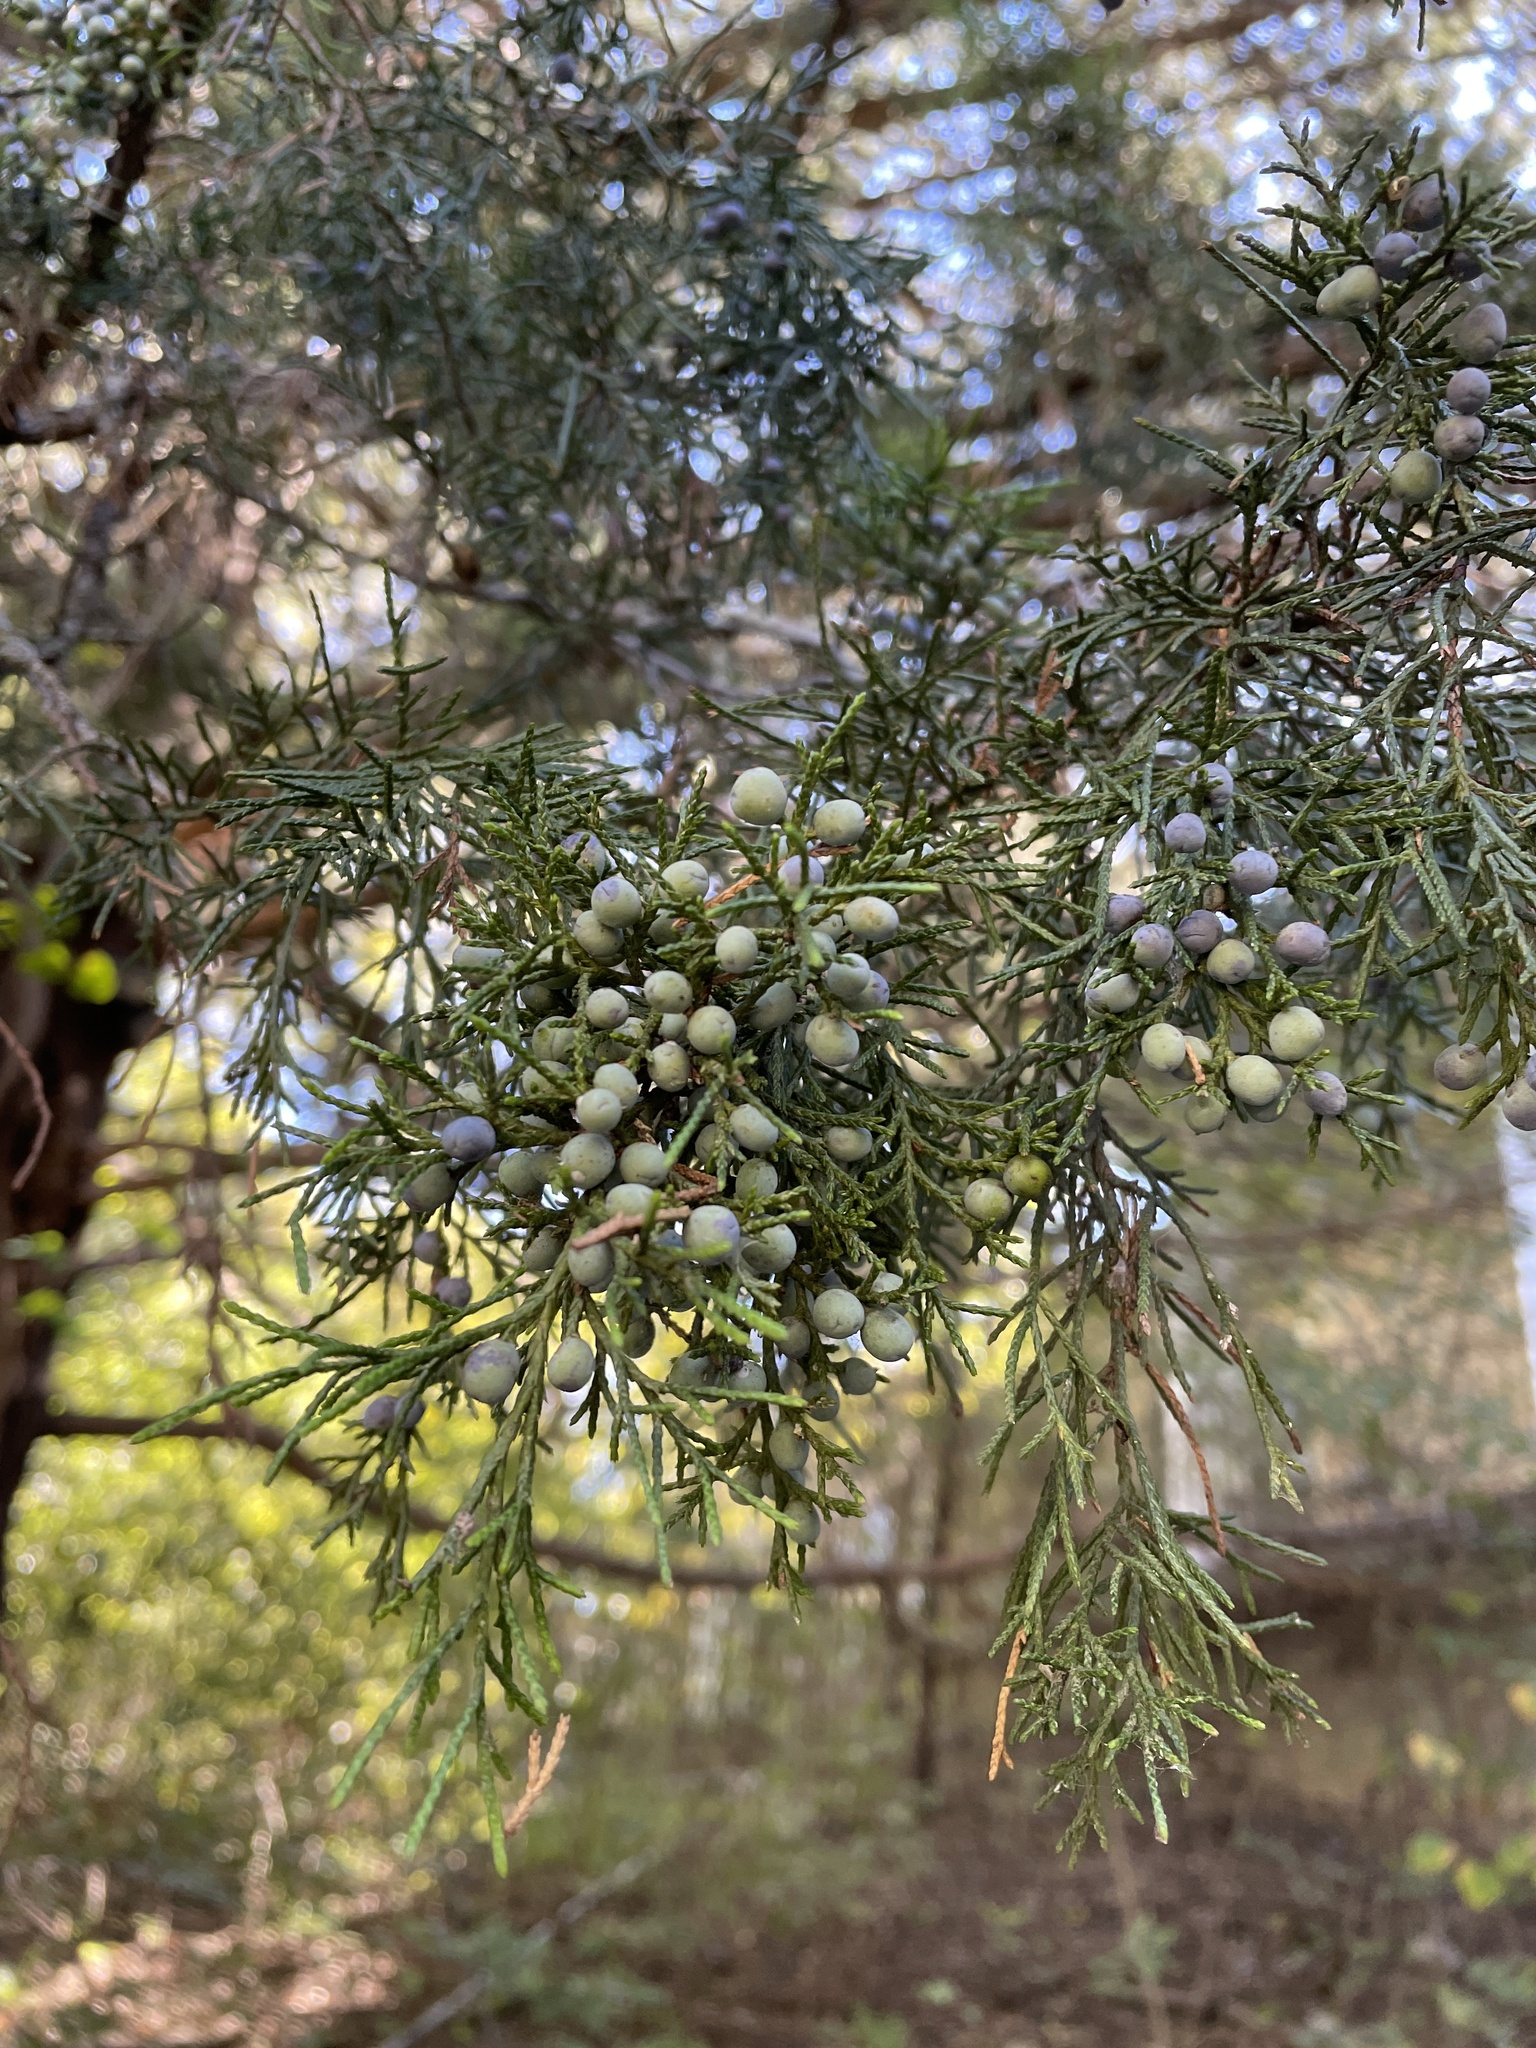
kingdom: Plantae
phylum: Tracheophyta
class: Pinopsida
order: Pinales
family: Cupressaceae
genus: Juniperus
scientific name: Juniperus virginiana
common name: Red juniper
